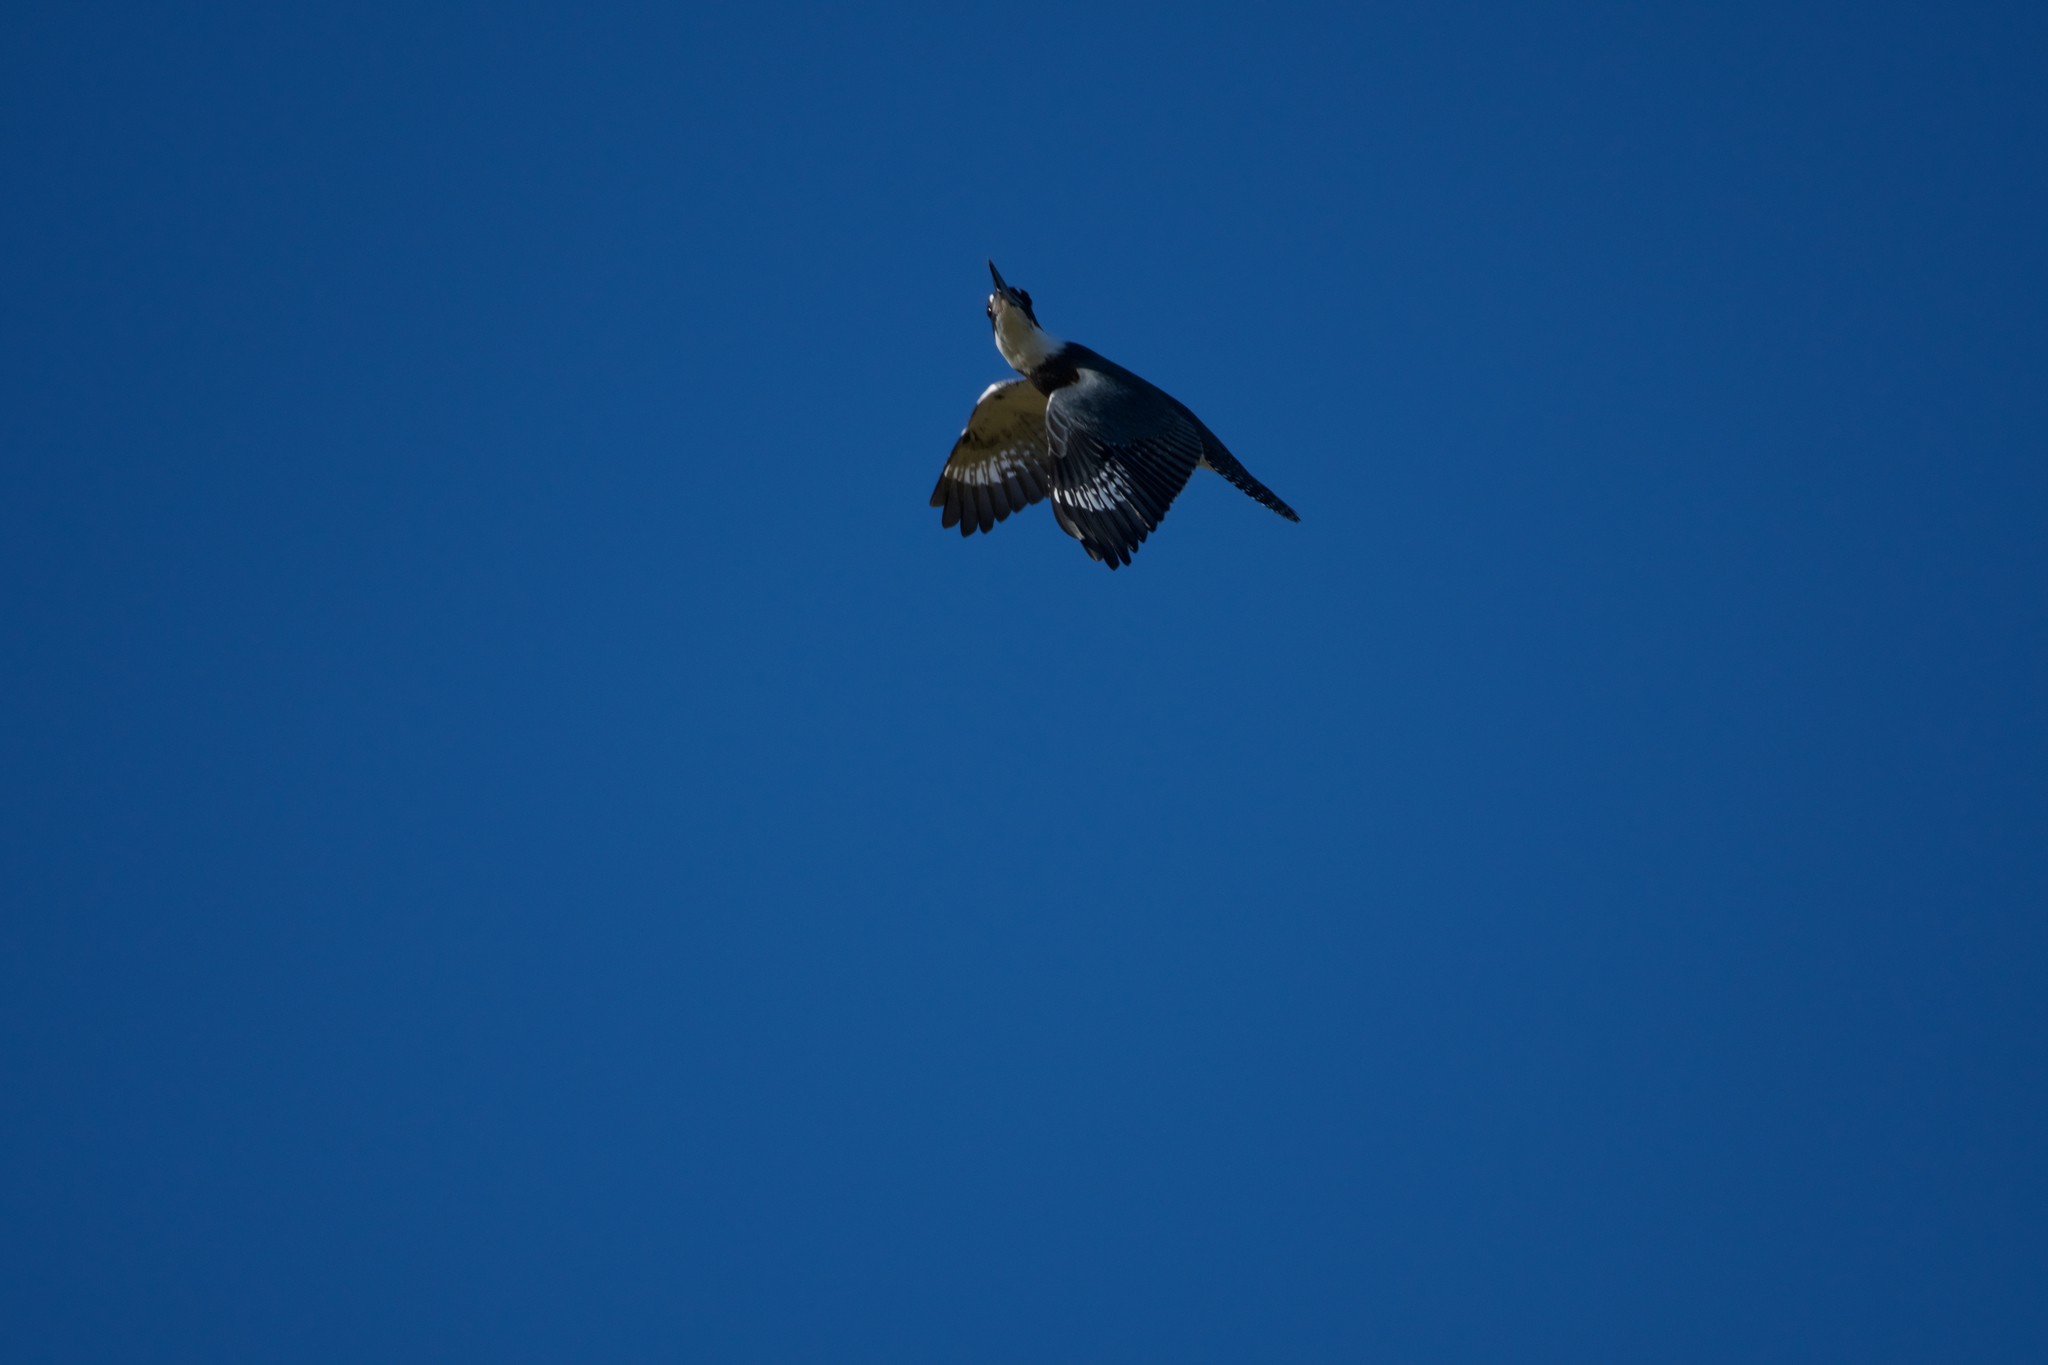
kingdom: Animalia
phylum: Chordata
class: Aves
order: Coraciiformes
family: Alcedinidae
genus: Megaceryle
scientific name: Megaceryle alcyon
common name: Belted kingfisher
